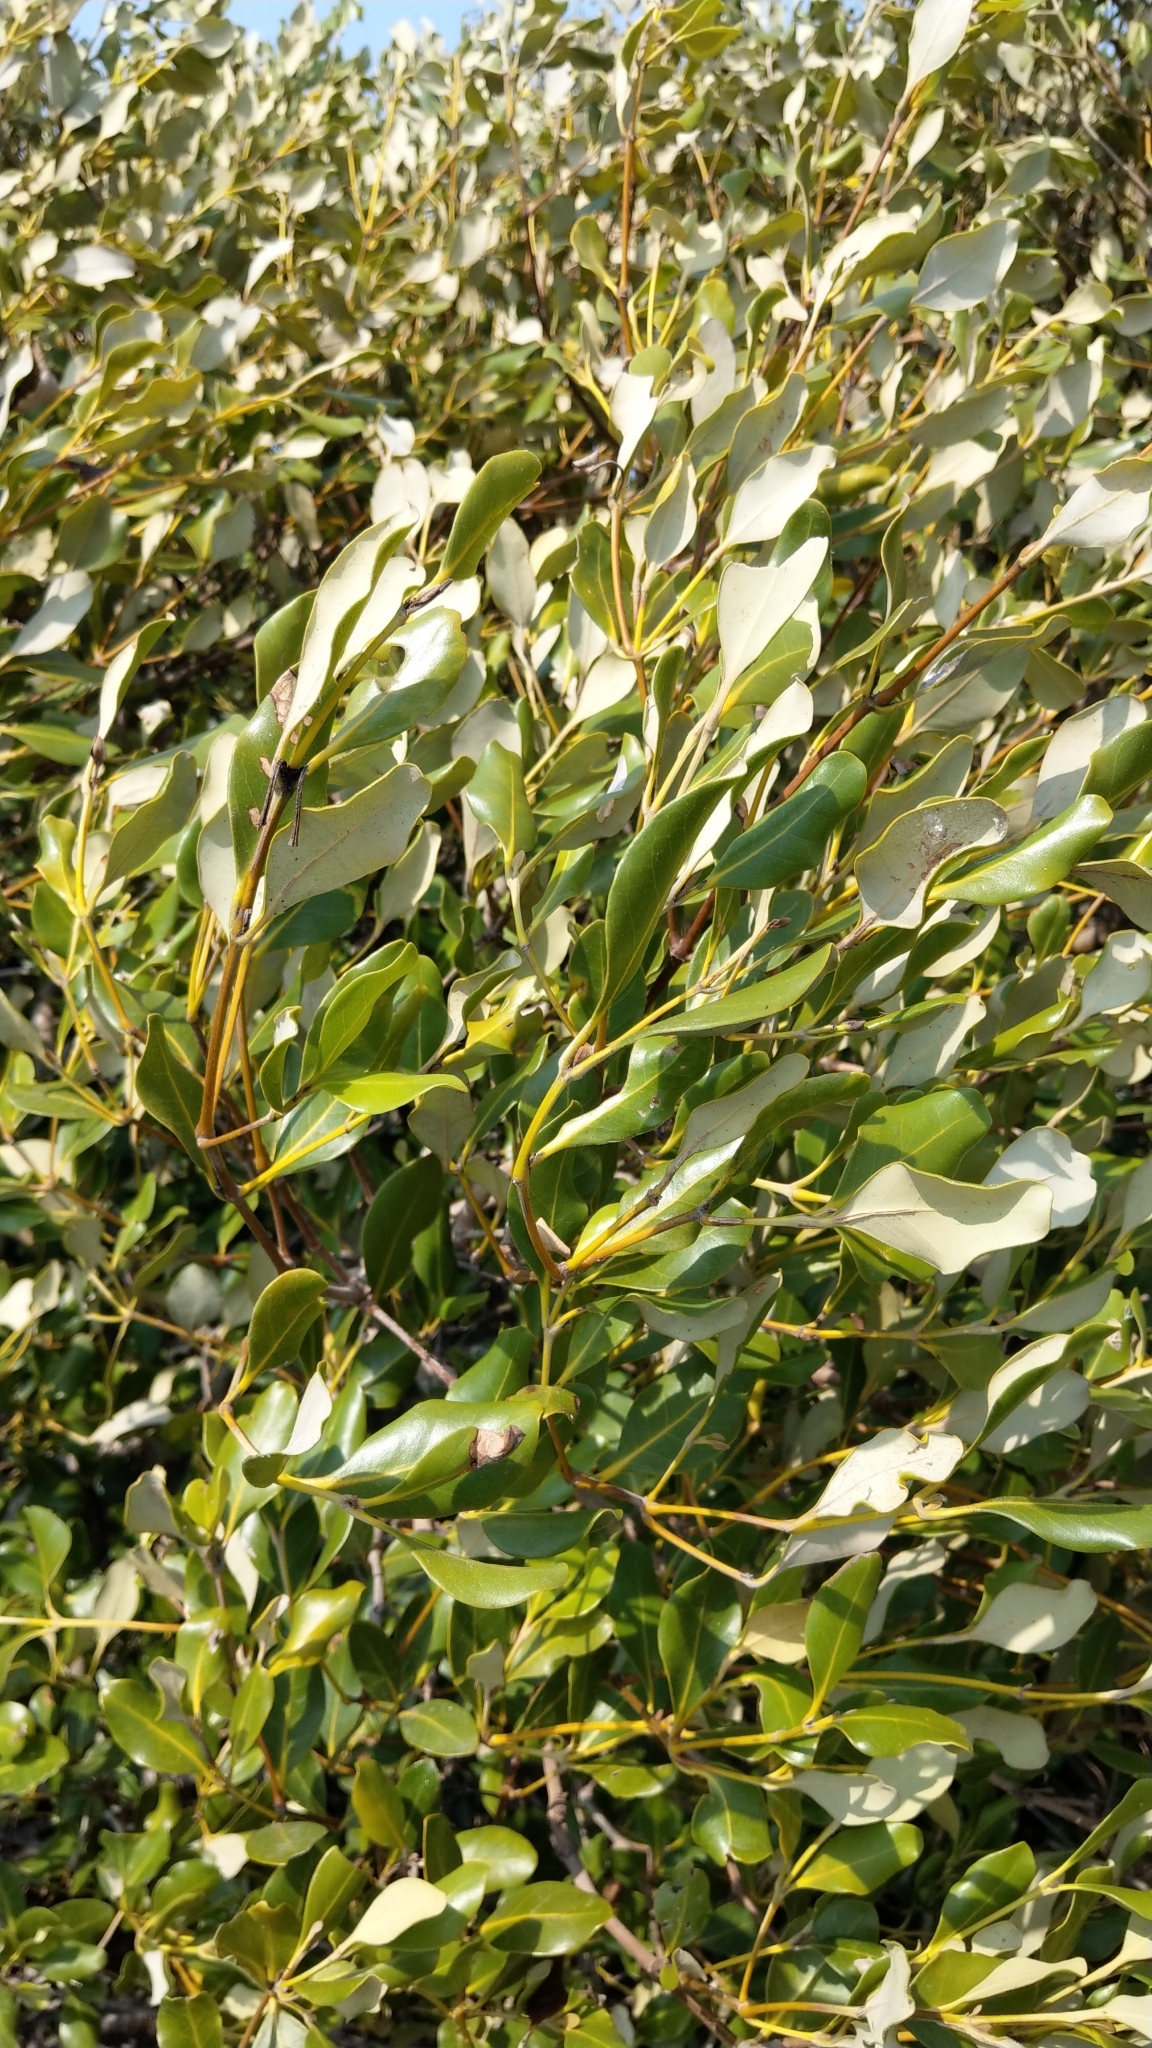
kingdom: Plantae
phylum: Tracheophyta
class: Magnoliopsida
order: Lamiales
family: Acanthaceae
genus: Avicennia
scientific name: Avicennia marina
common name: Gray mangrove
